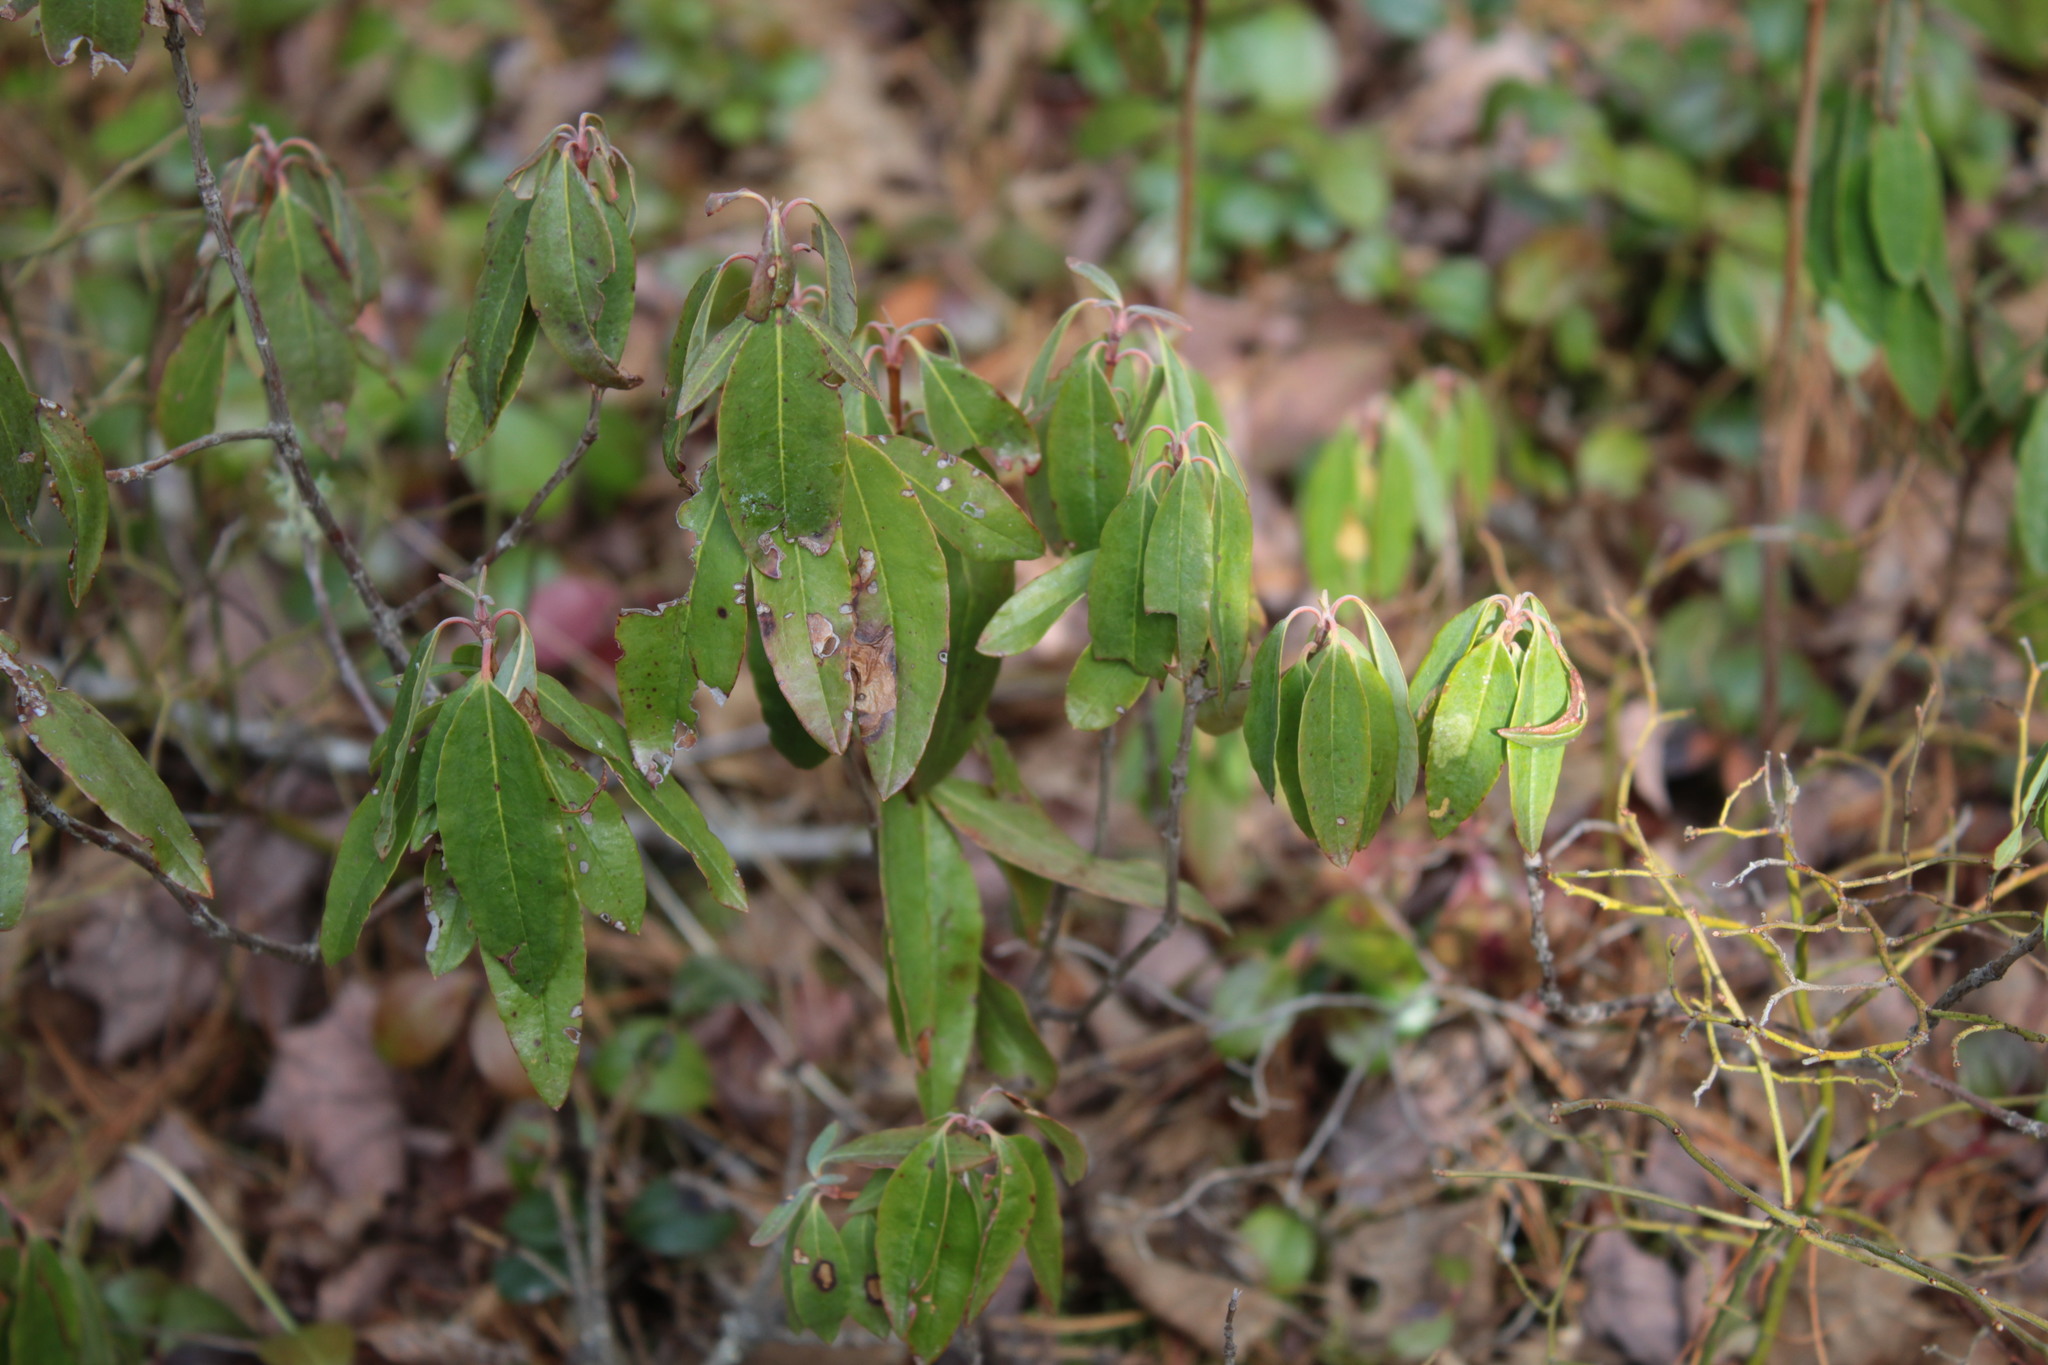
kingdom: Plantae
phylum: Tracheophyta
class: Magnoliopsida
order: Ericales
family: Ericaceae
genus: Kalmia
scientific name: Kalmia angustifolia
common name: Sheep-laurel
